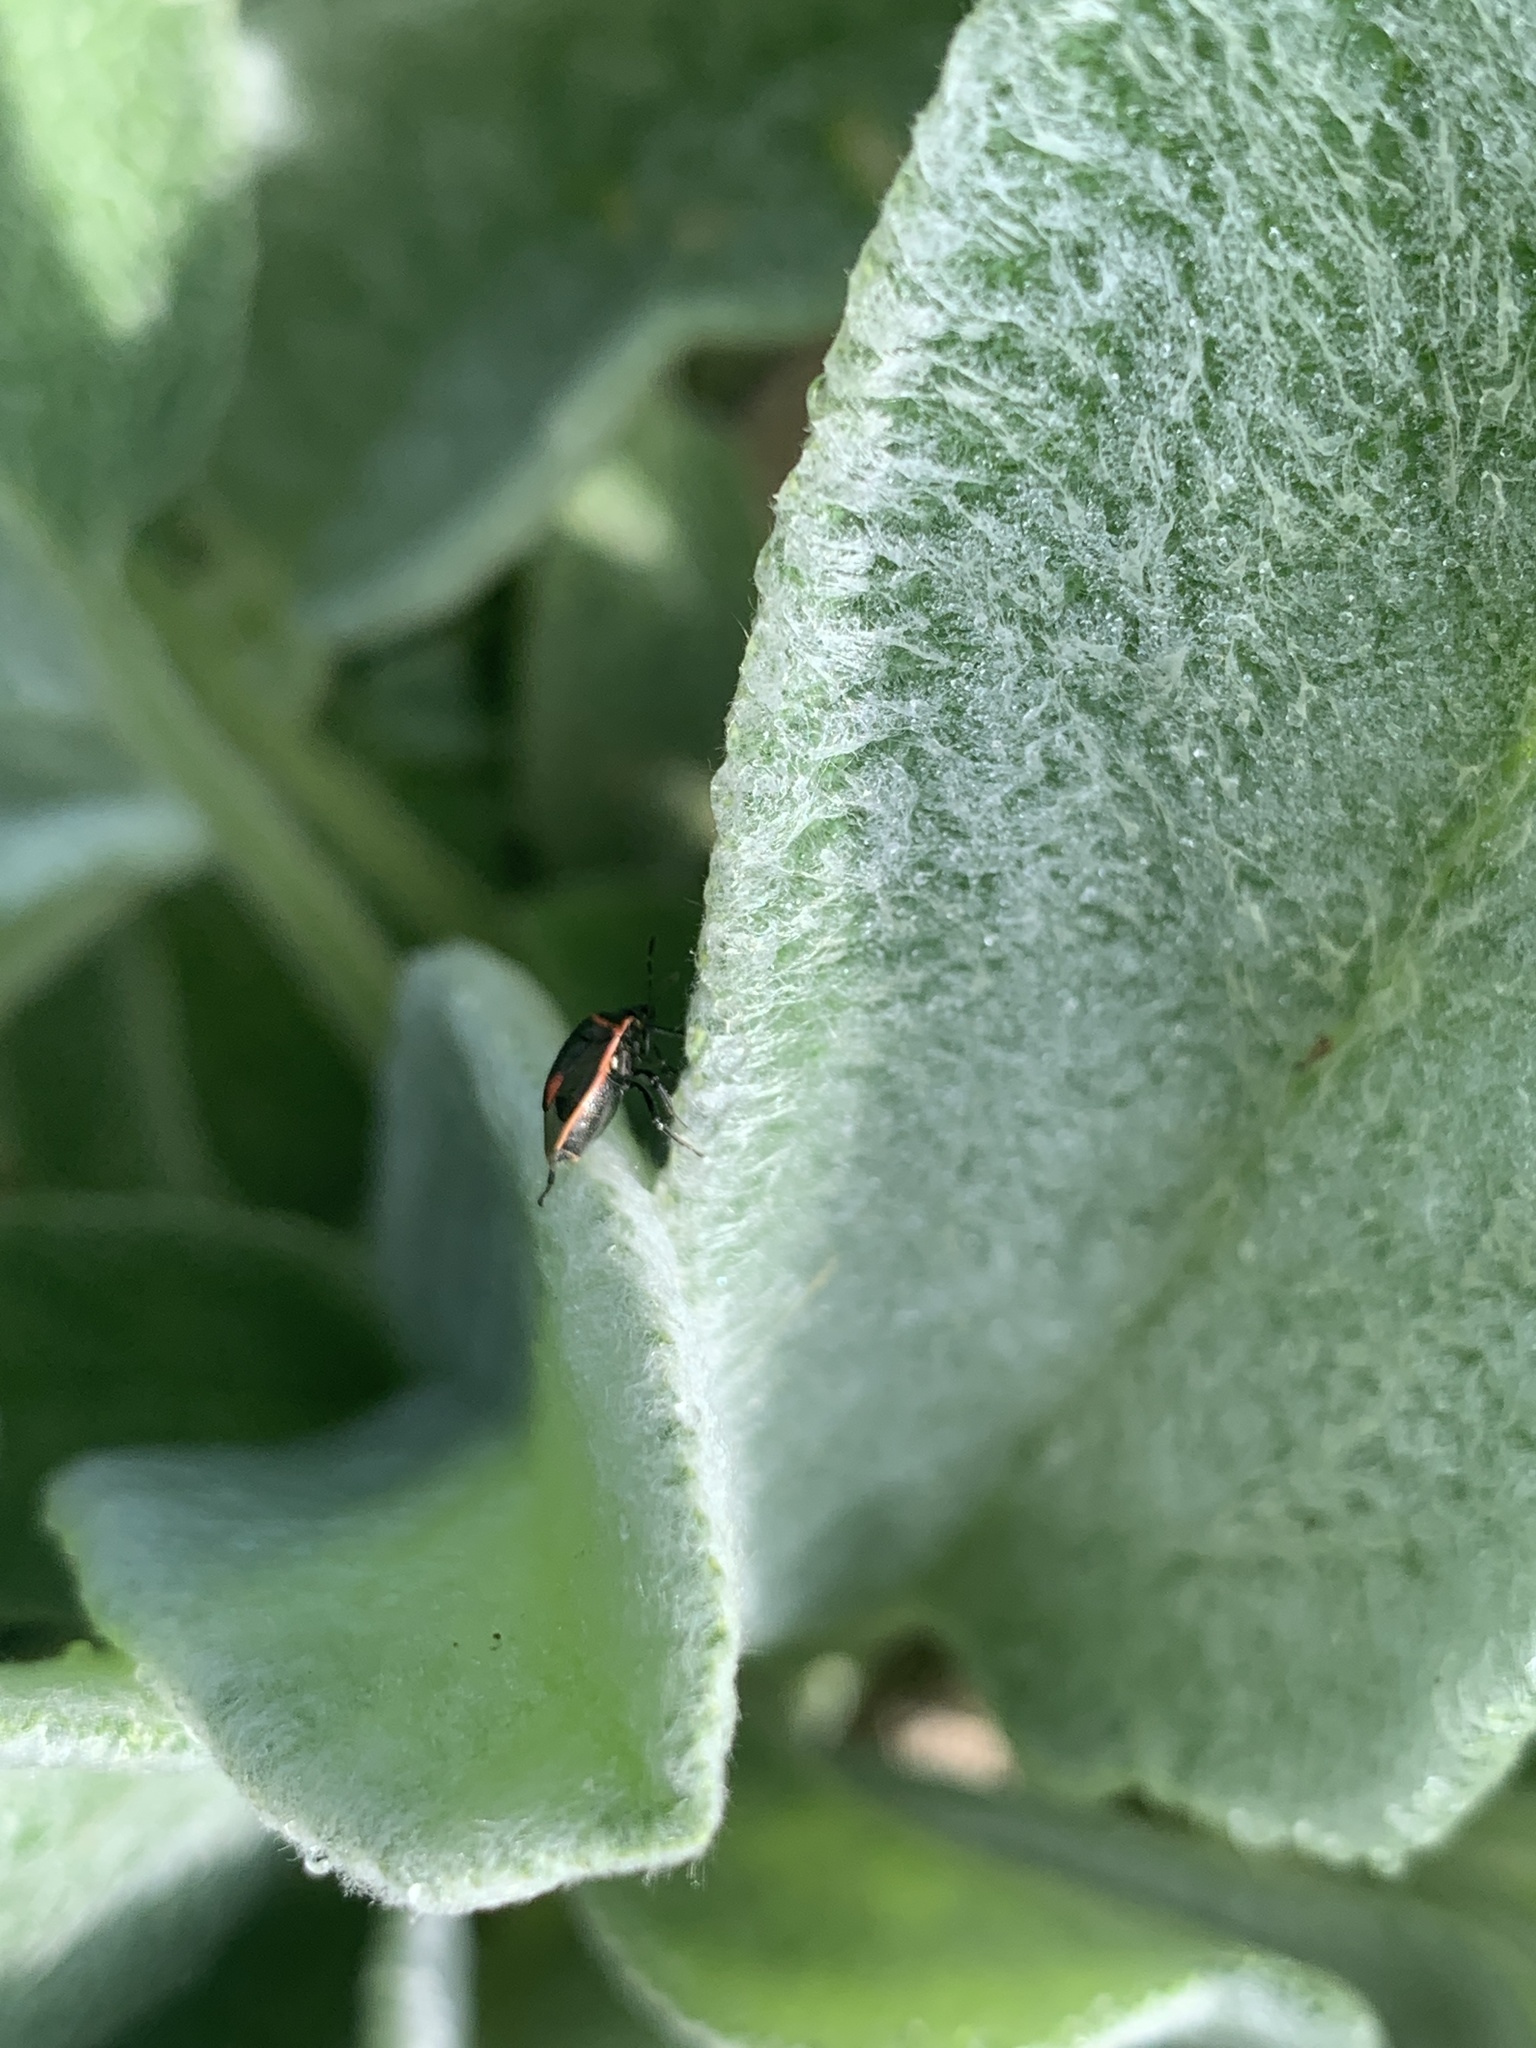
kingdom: Animalia
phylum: Arthropoda
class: Insecta
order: Hemiptera
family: Pentatomidae
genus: Cosmopepla
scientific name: Cosmopepla lintneriana
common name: Twice-stabbed stink bug
